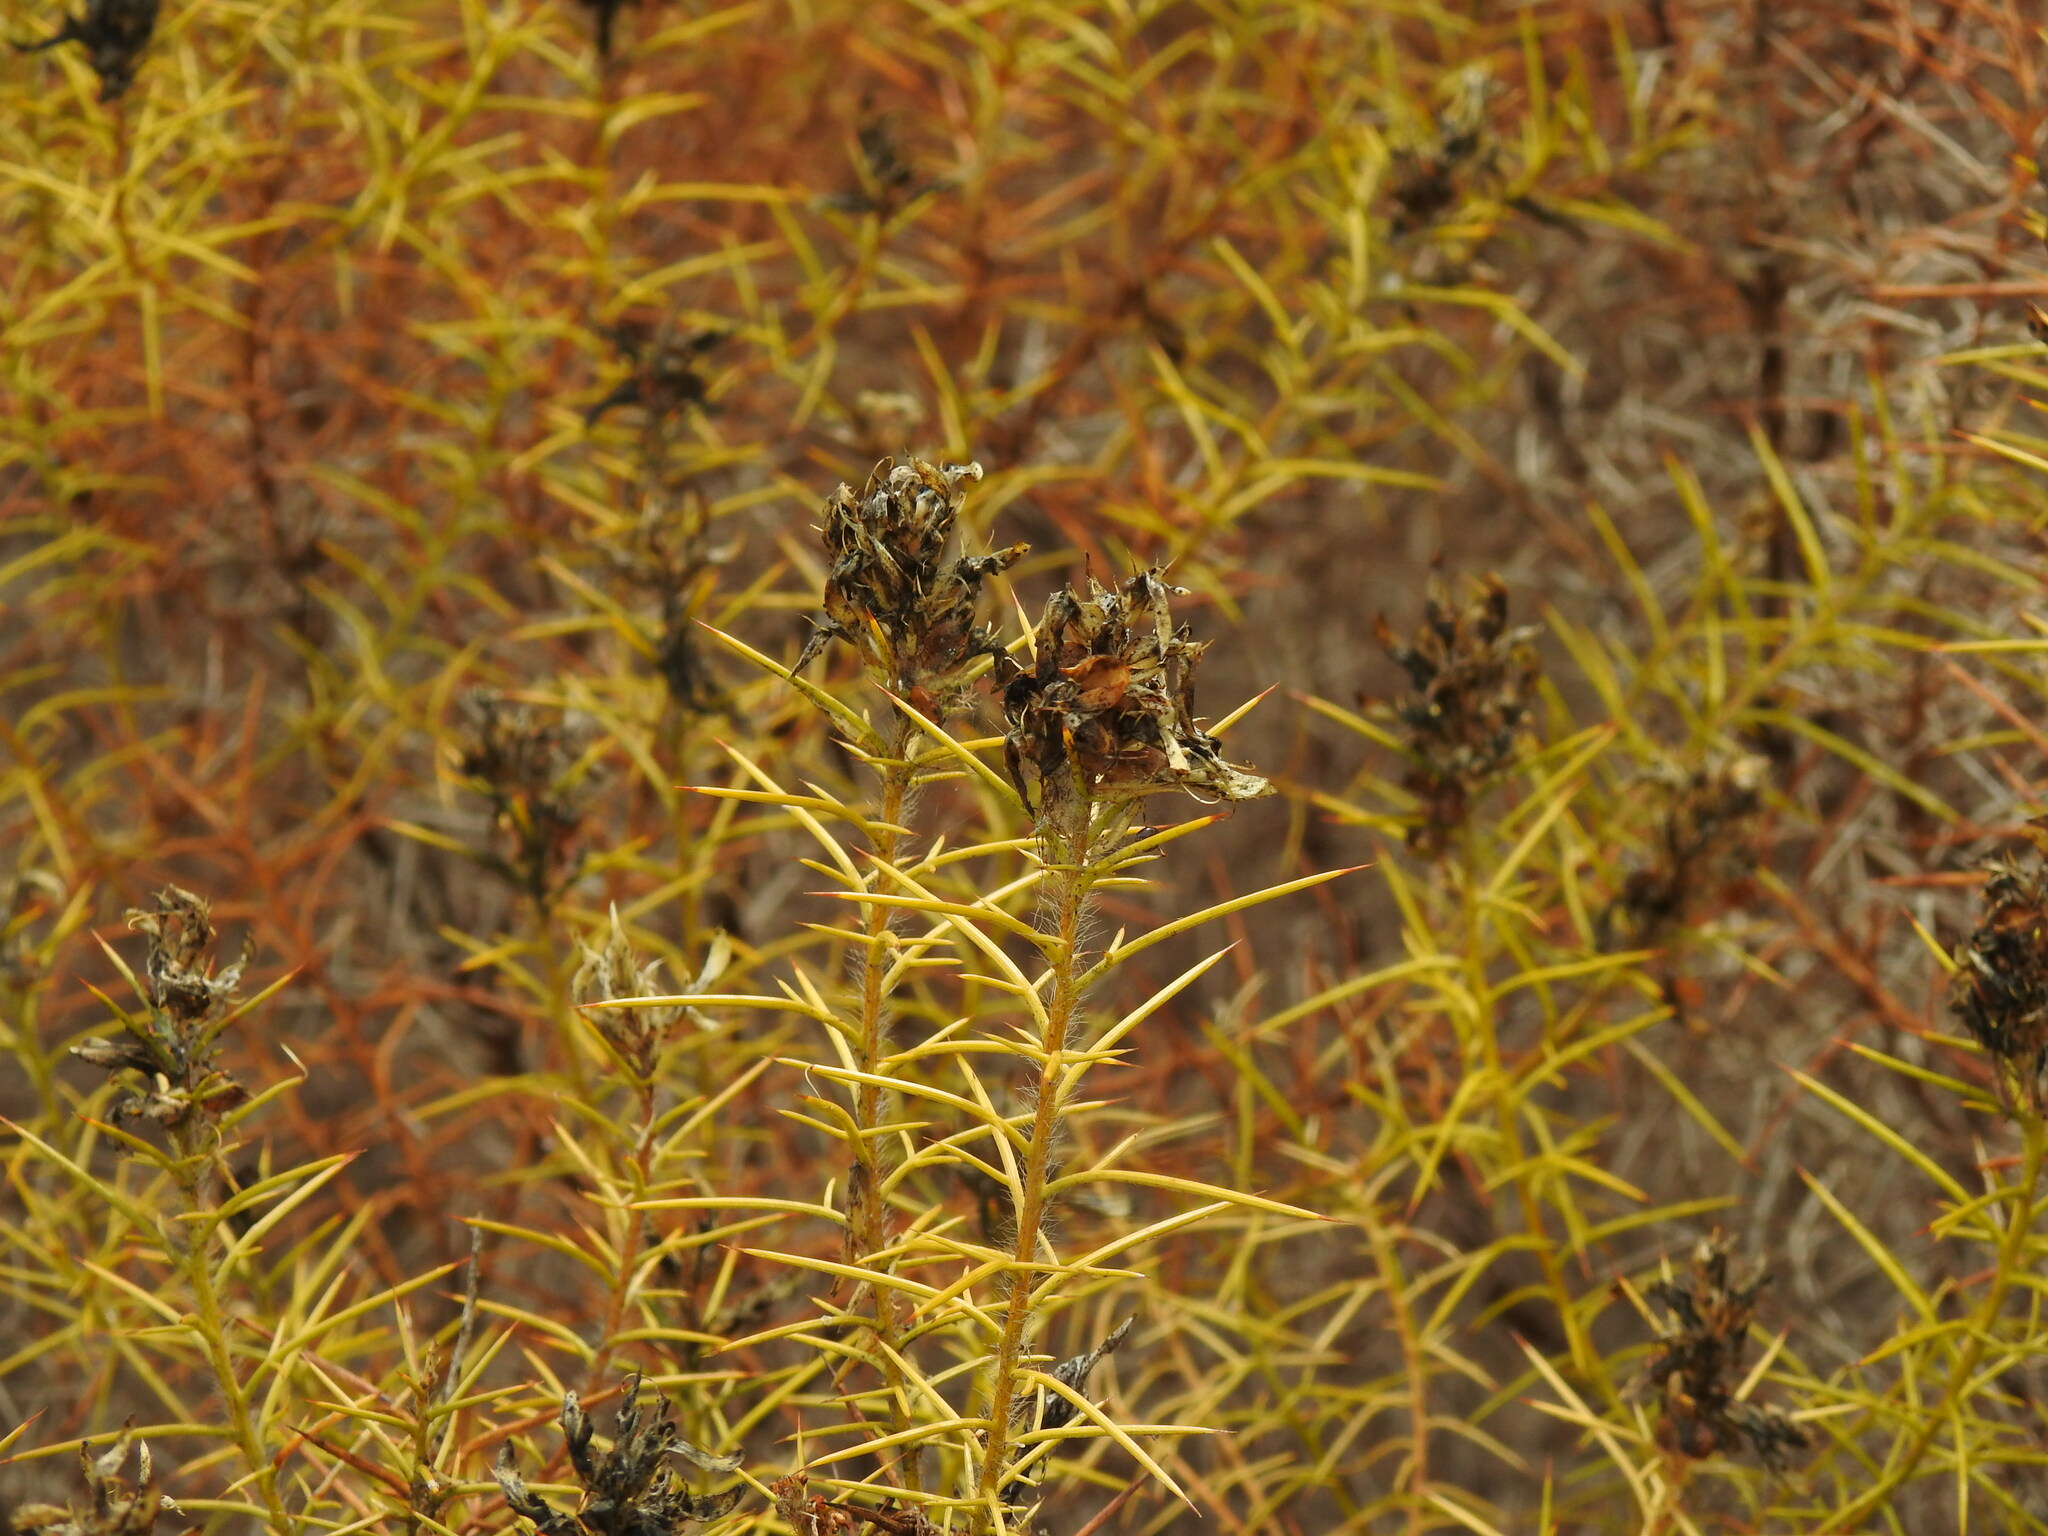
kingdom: Plantae
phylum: Tracheophyta
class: Magnoliopsida
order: Fabales
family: Fabaceae
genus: Genista
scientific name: Genista hirsuta
